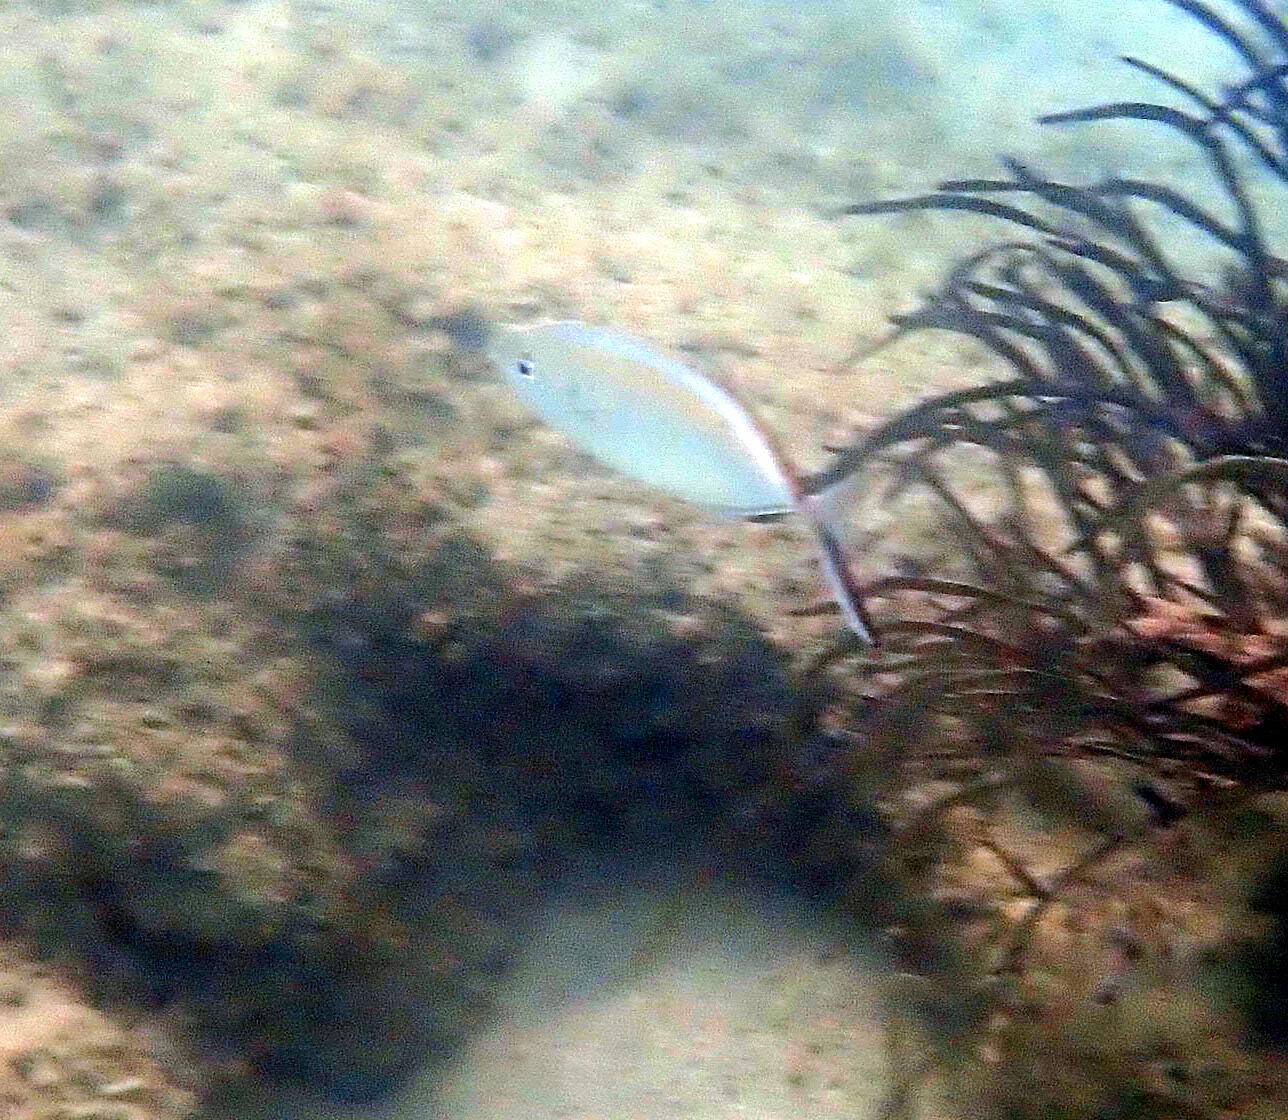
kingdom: Animalia
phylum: Chordata
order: Perciformes
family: Carangidae
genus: Caranx
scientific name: Caranx ruber
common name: Bar jack
